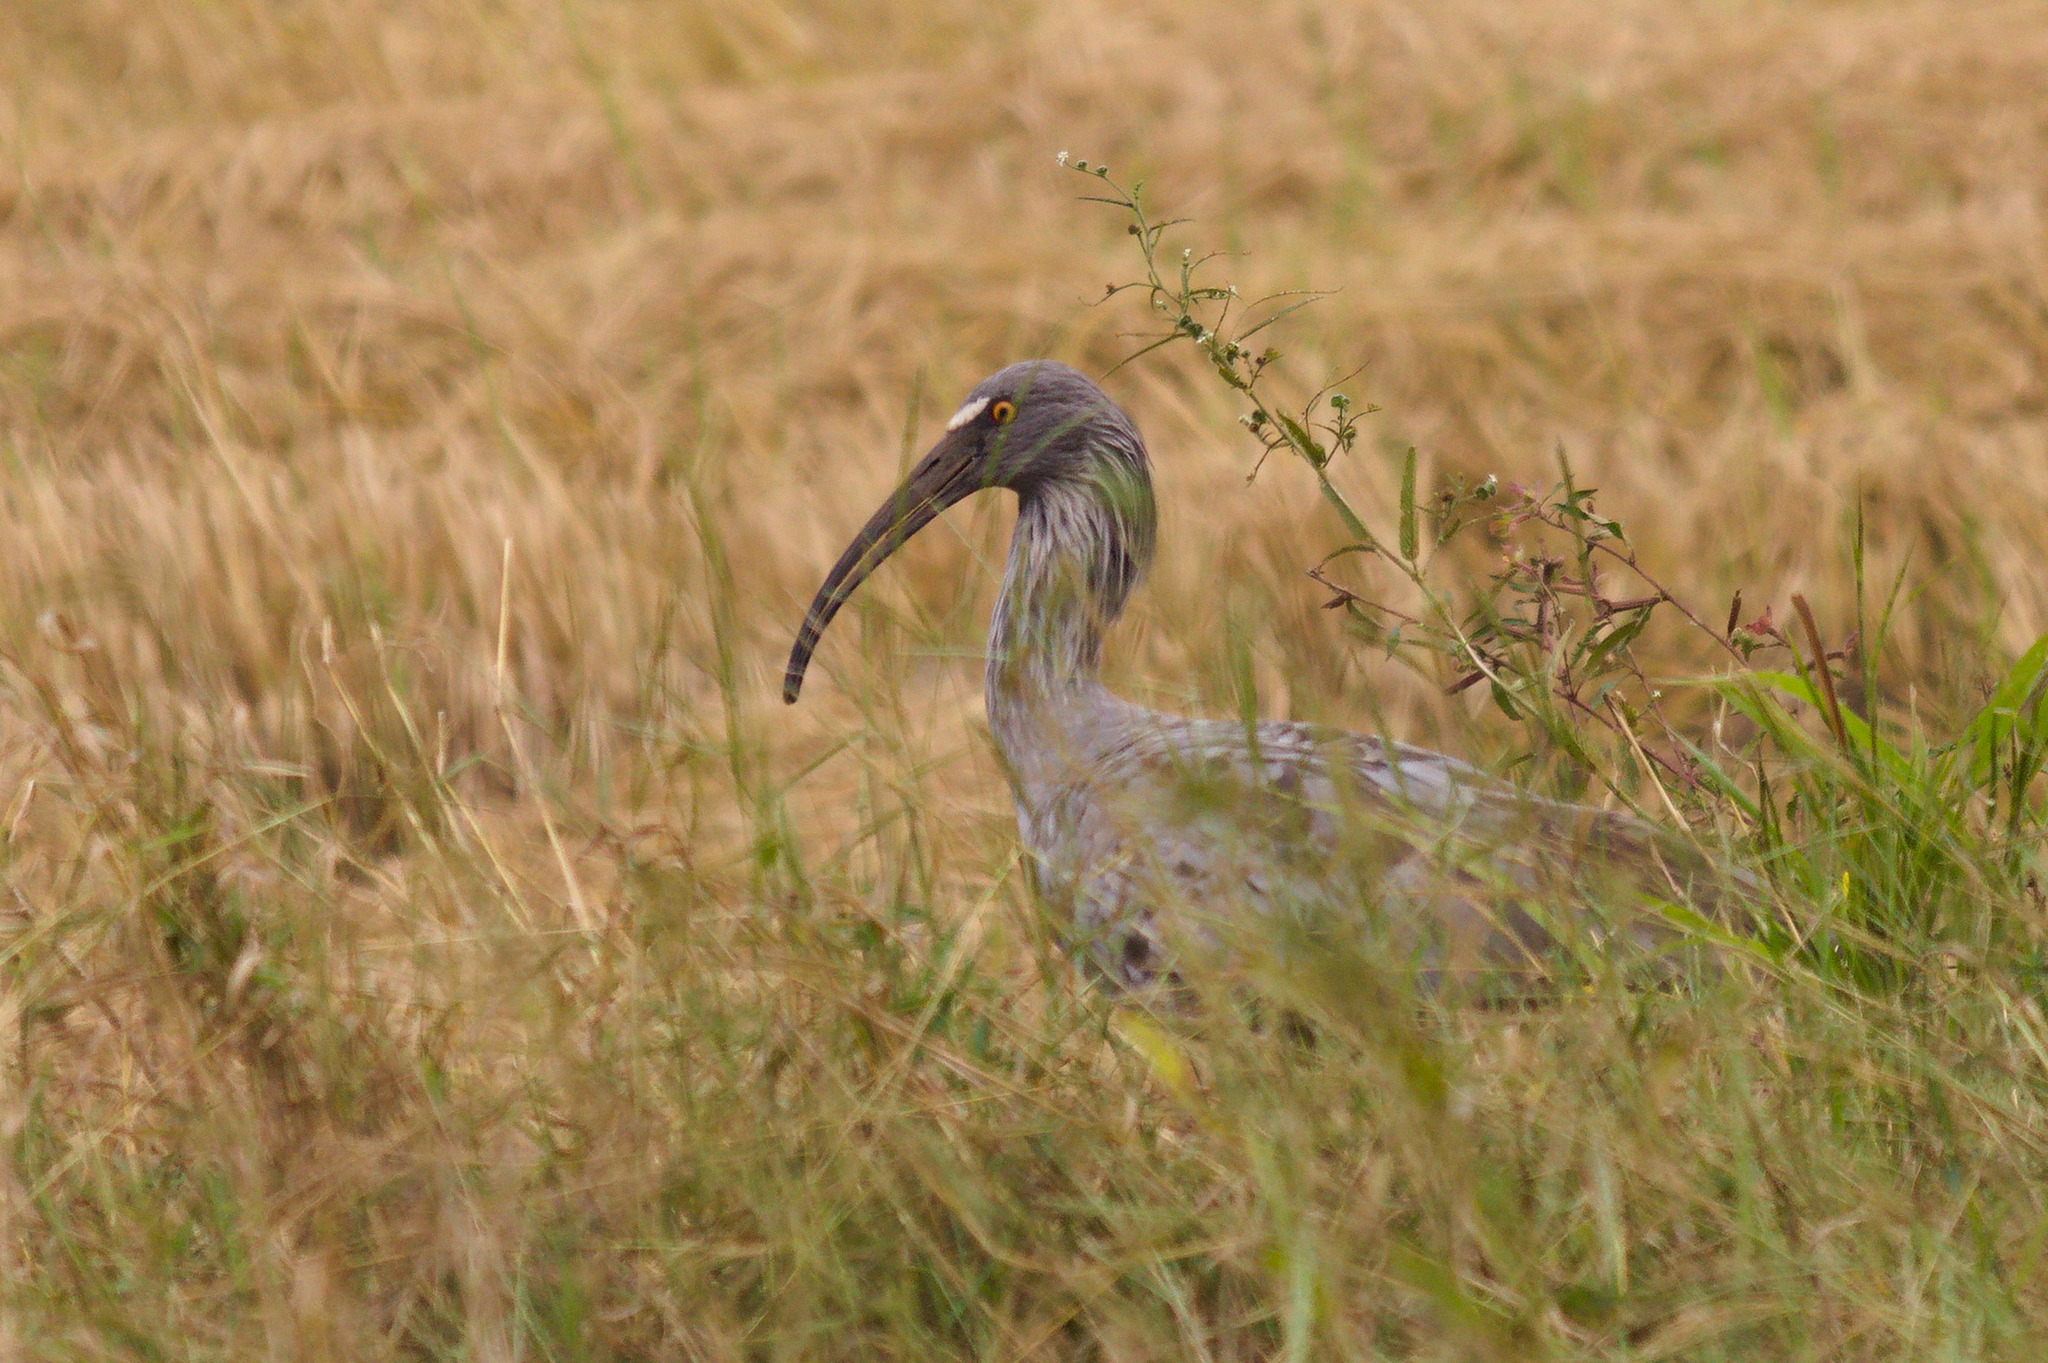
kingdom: Animalia
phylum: Chordata
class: Aves
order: Pelecaniformes
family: Threskiornithidae
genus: Theristicus
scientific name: Theristicus caerulescens
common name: Plumbeous ibis
